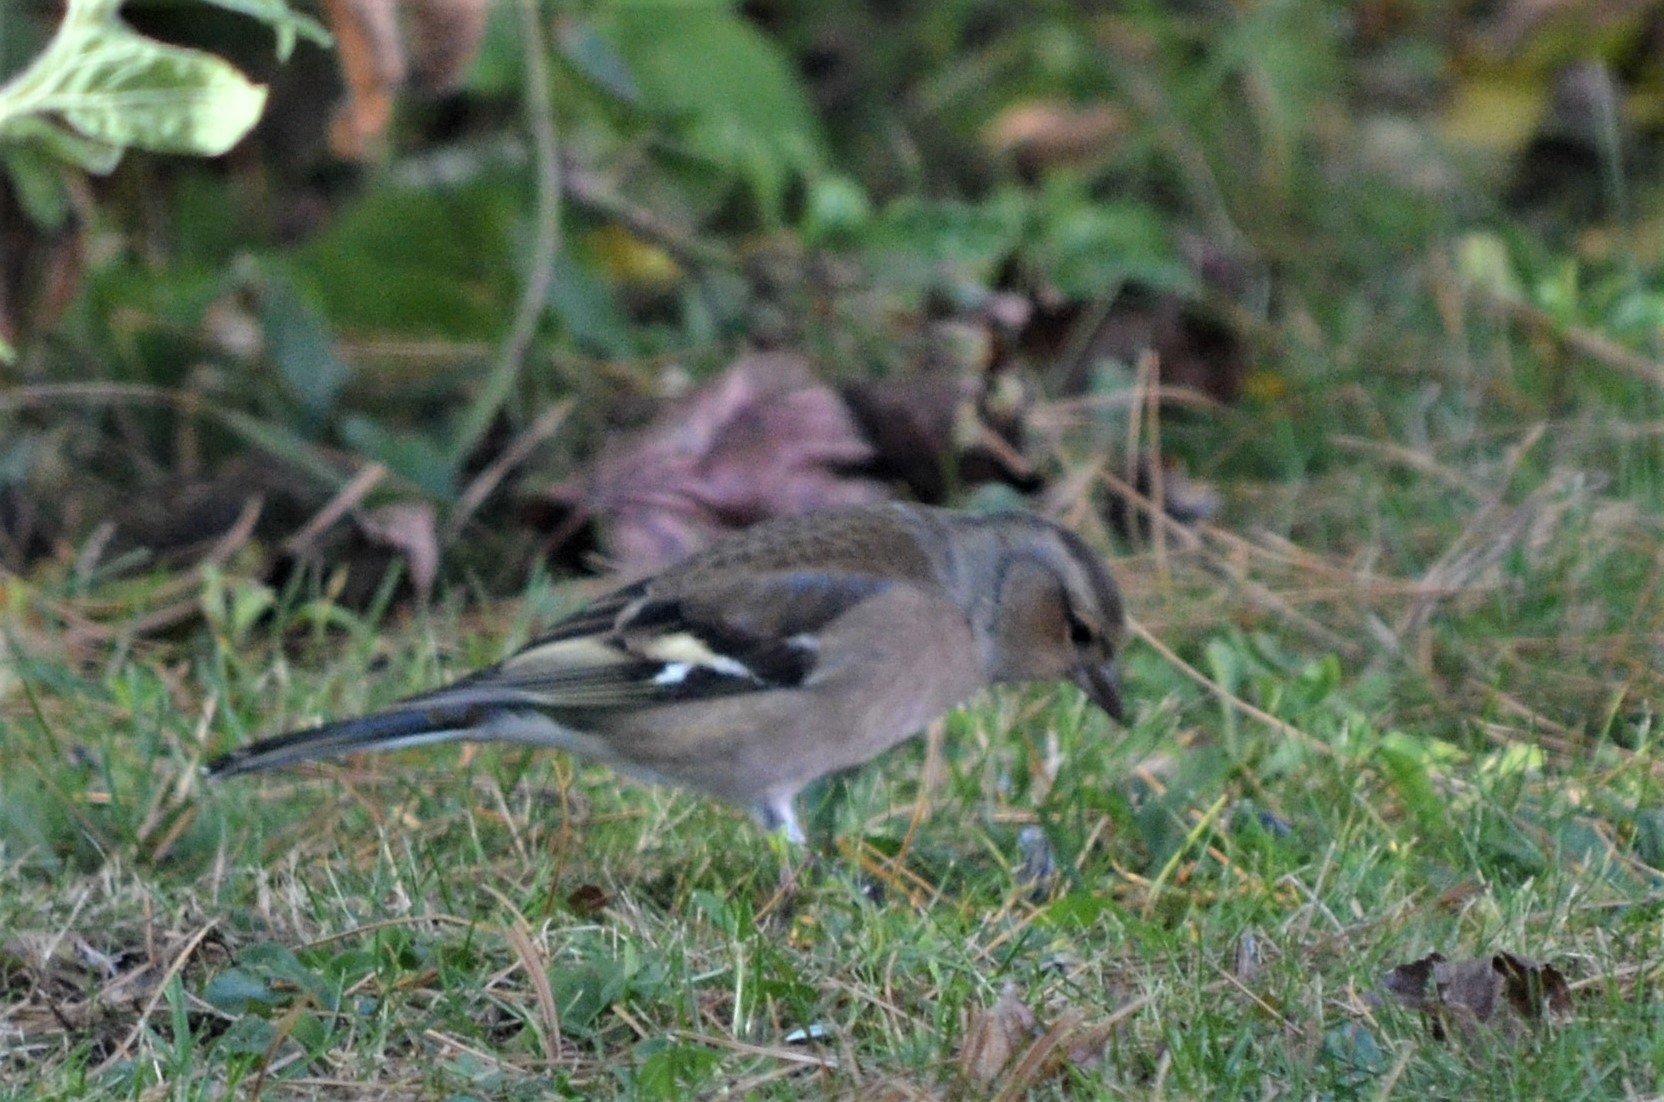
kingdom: Animalia
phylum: Chordata
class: Aves
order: Passeriformes
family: Fringillidae
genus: Fringilla
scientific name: Fringilla coelebs
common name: Common chaffinch
